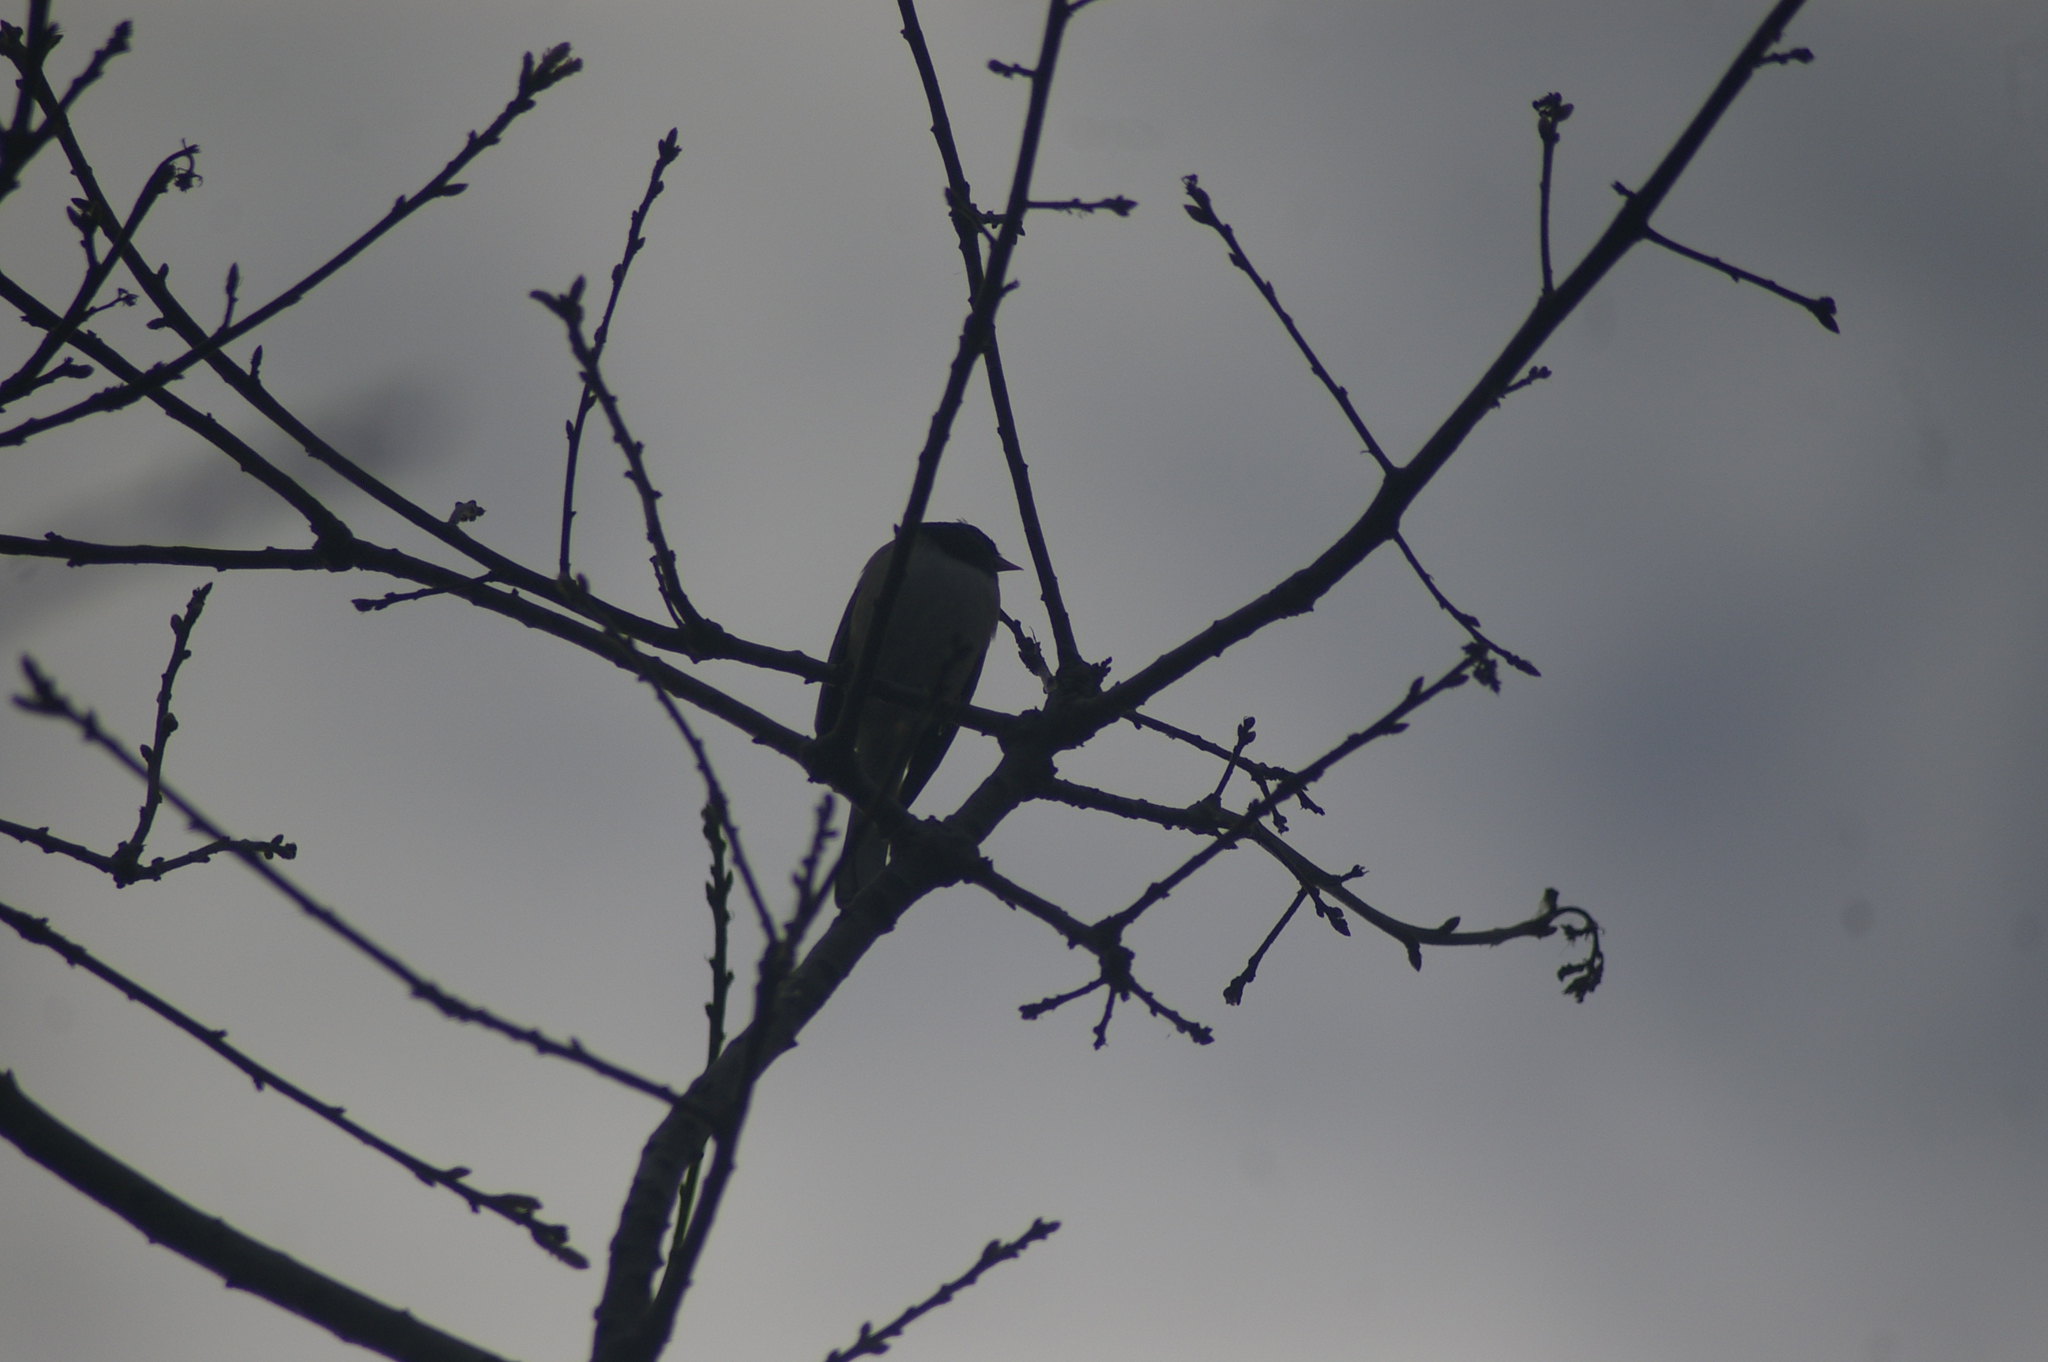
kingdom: Animalia
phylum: Chordata
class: Aves
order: Passeriformes
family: Passerellidae
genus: Junco
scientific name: Junco hyemalis
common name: Dark-eyed junco
